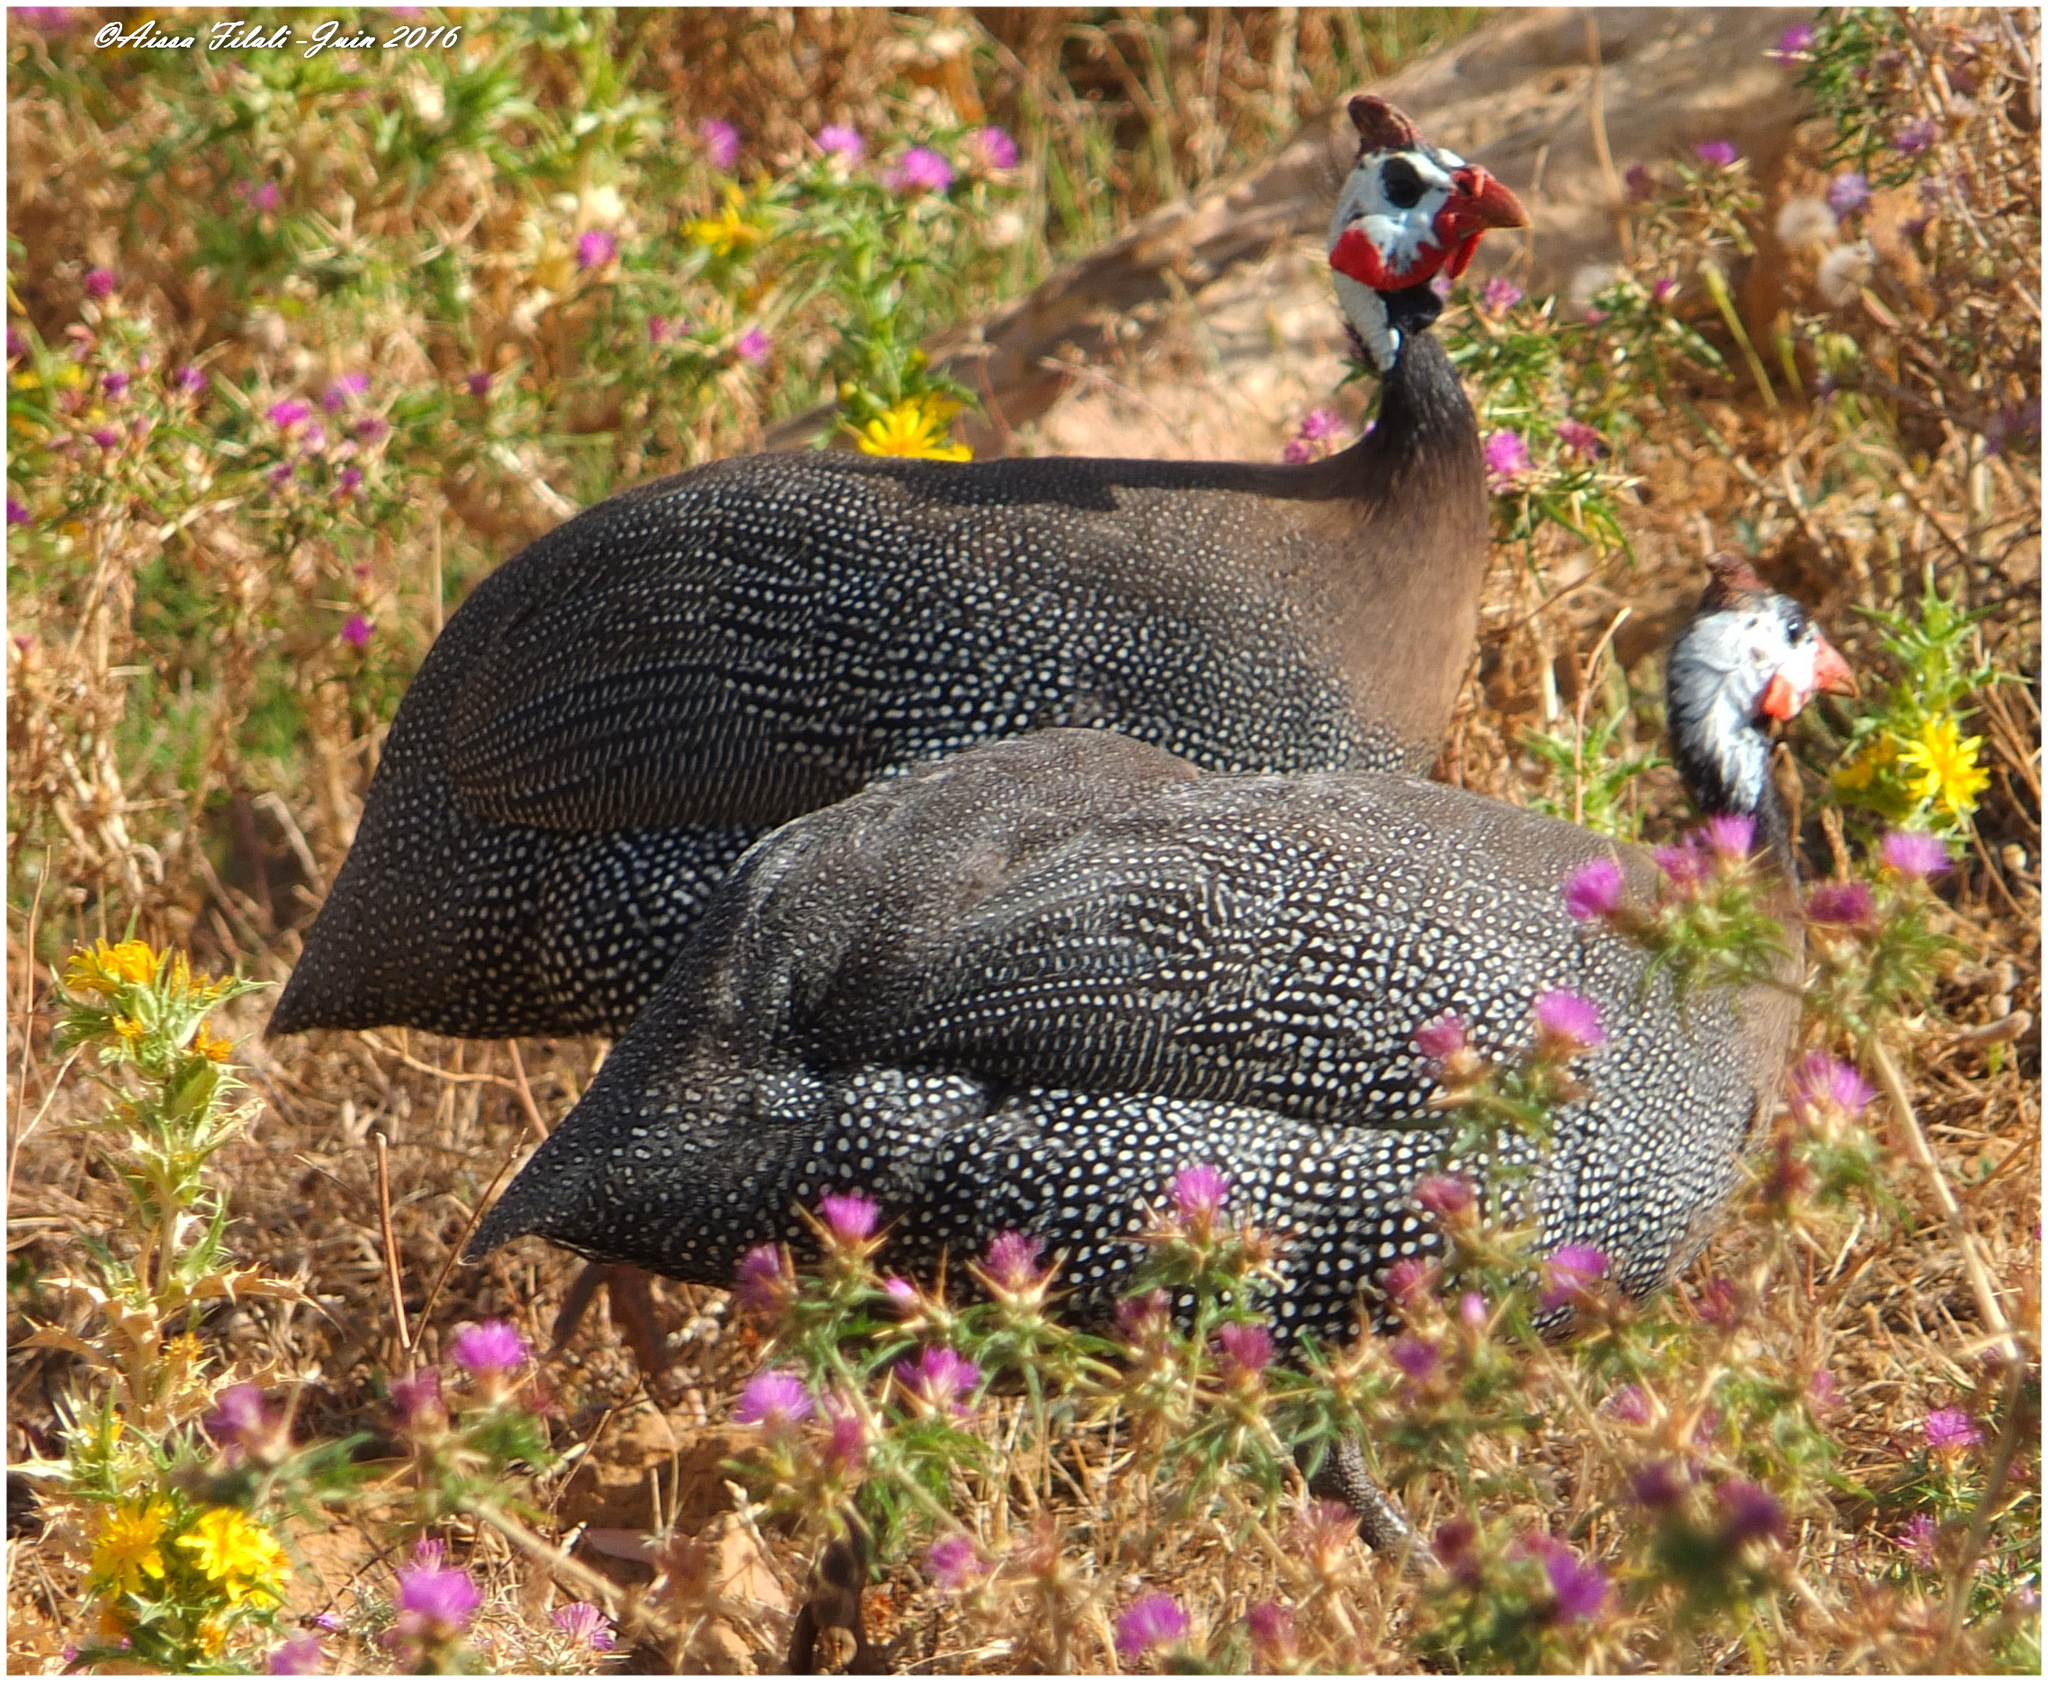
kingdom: Animalia
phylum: Chordata
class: Aves
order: Galliformes
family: Numididae
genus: Numida
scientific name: Numida meleagris
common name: Helmeted guineafowl
